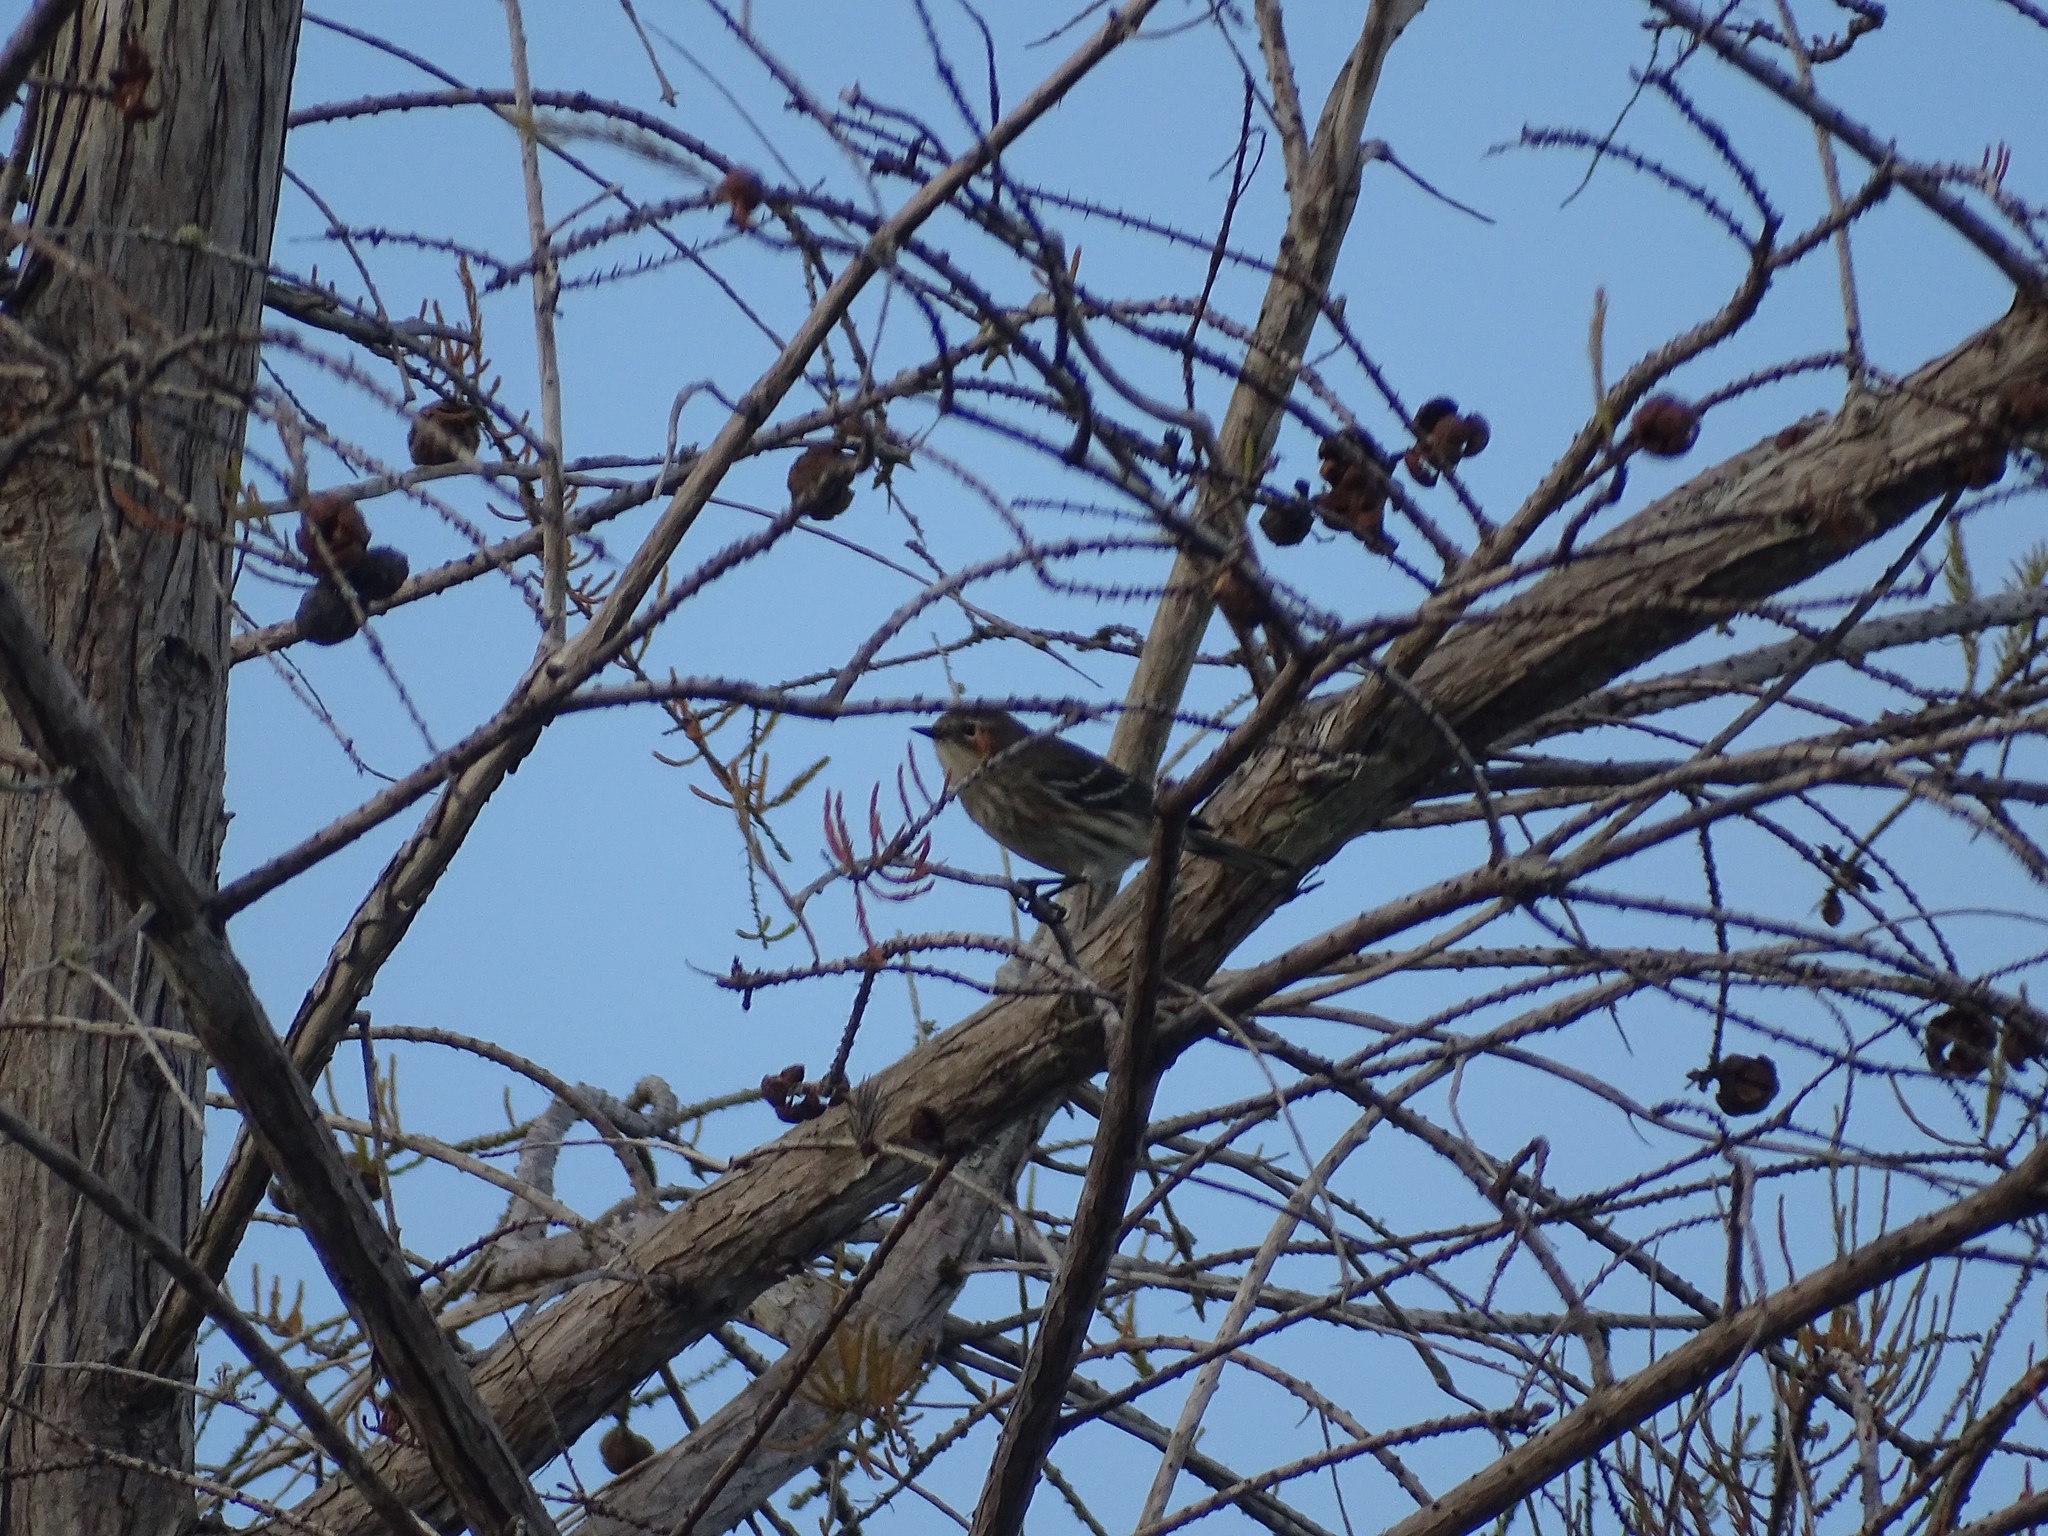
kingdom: Animalia
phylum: Chordata
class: Aves
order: Passeriformes
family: Parulidae
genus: Setophaga
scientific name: Setophaga coronata
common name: Myrtle warbler
